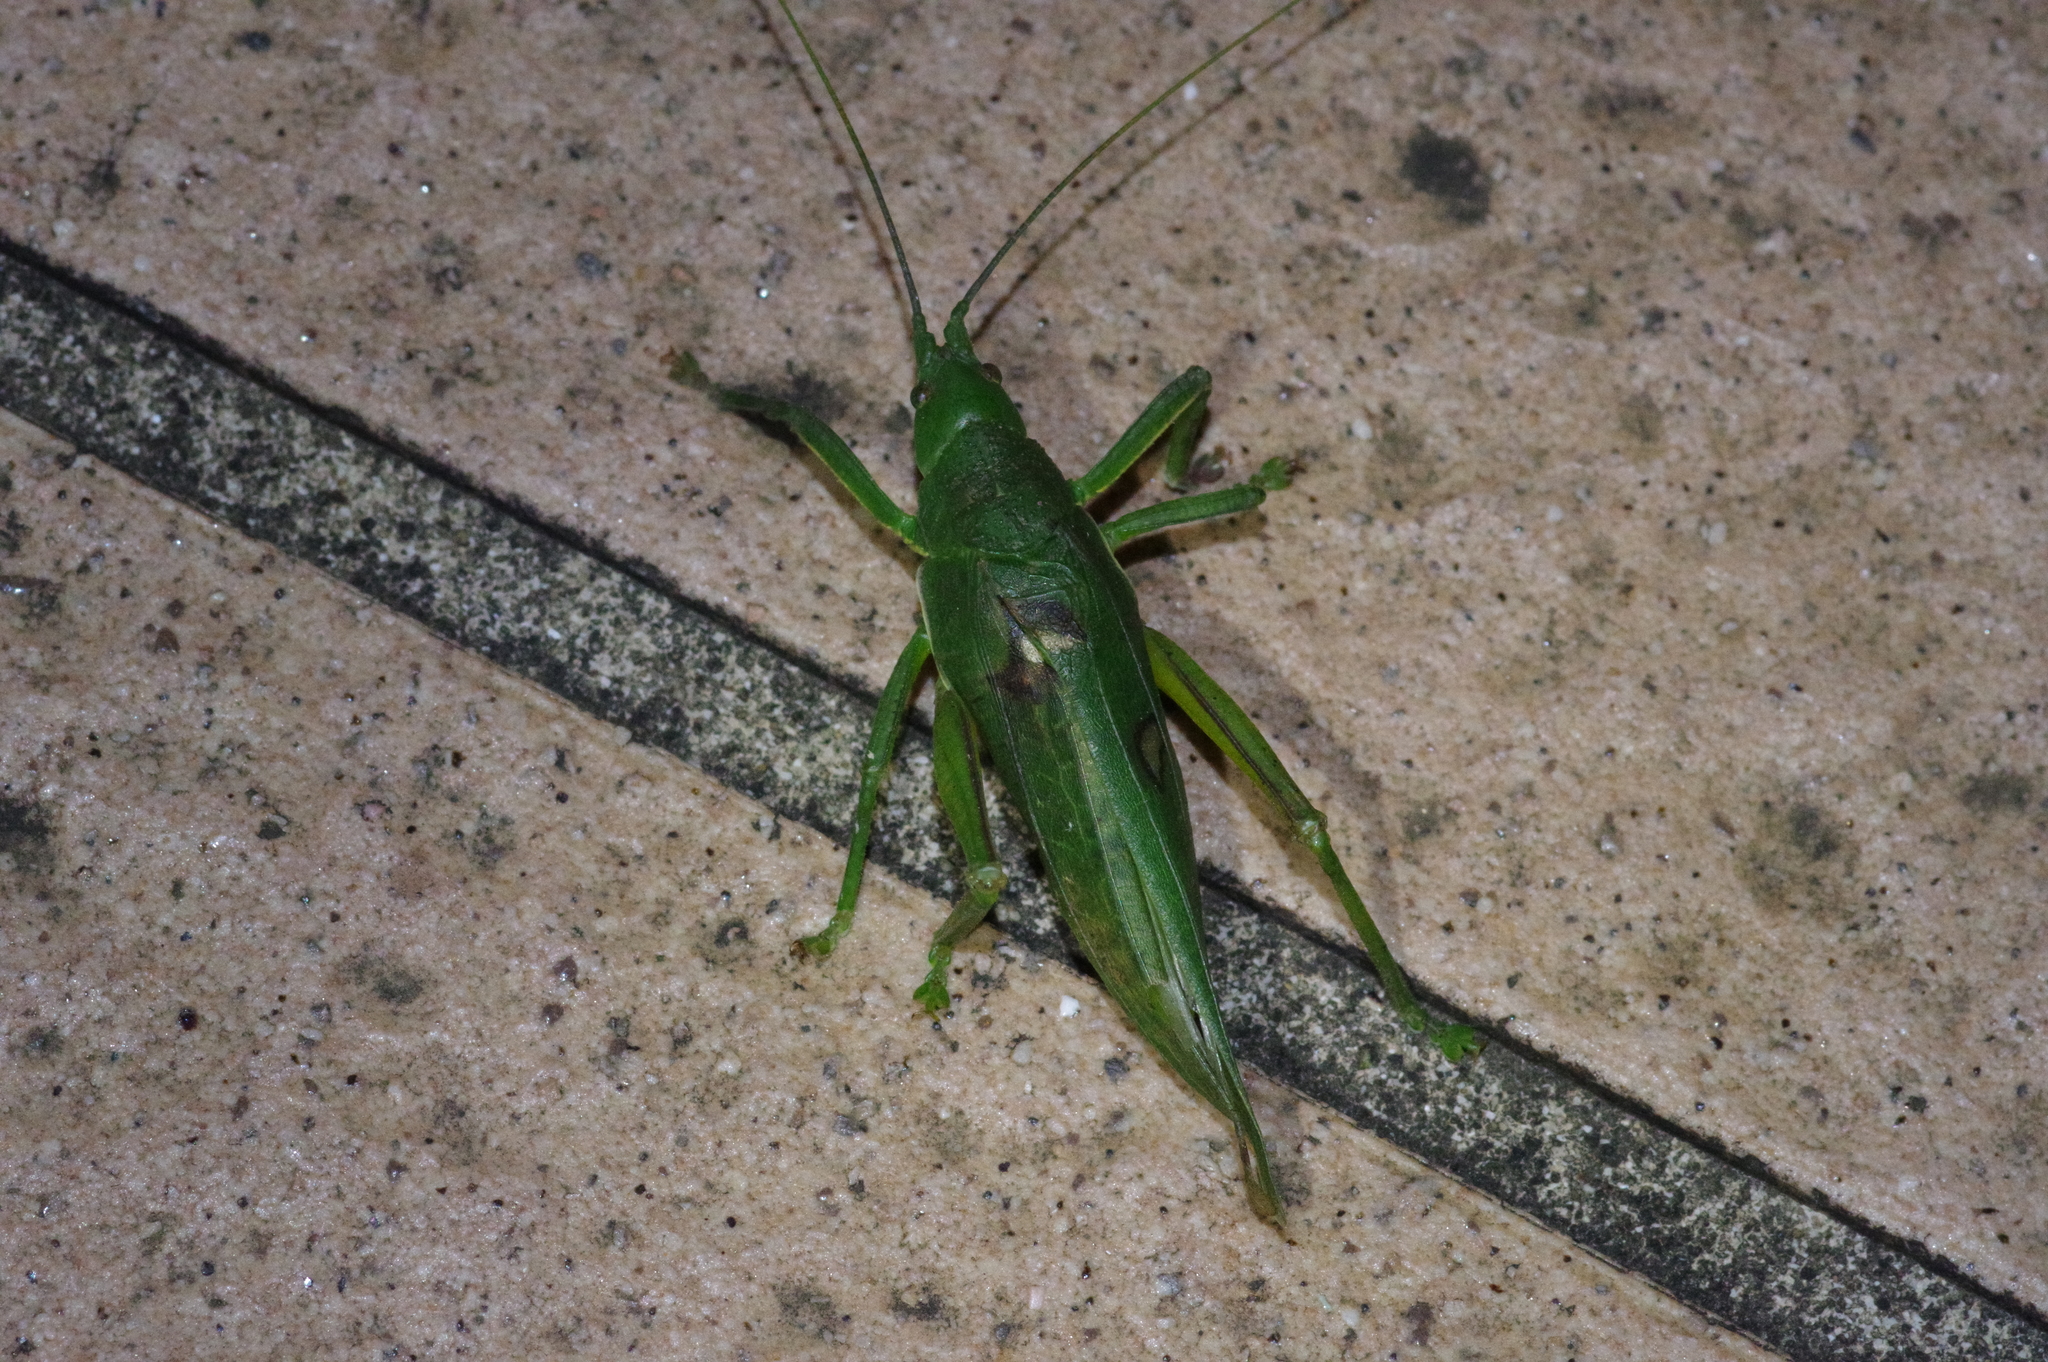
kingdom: Animalia
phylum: Arthropoda
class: Insecta
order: Orthoptera
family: Tettigoniidae
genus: Phyllomimus
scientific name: Phyllomimus sinicus
